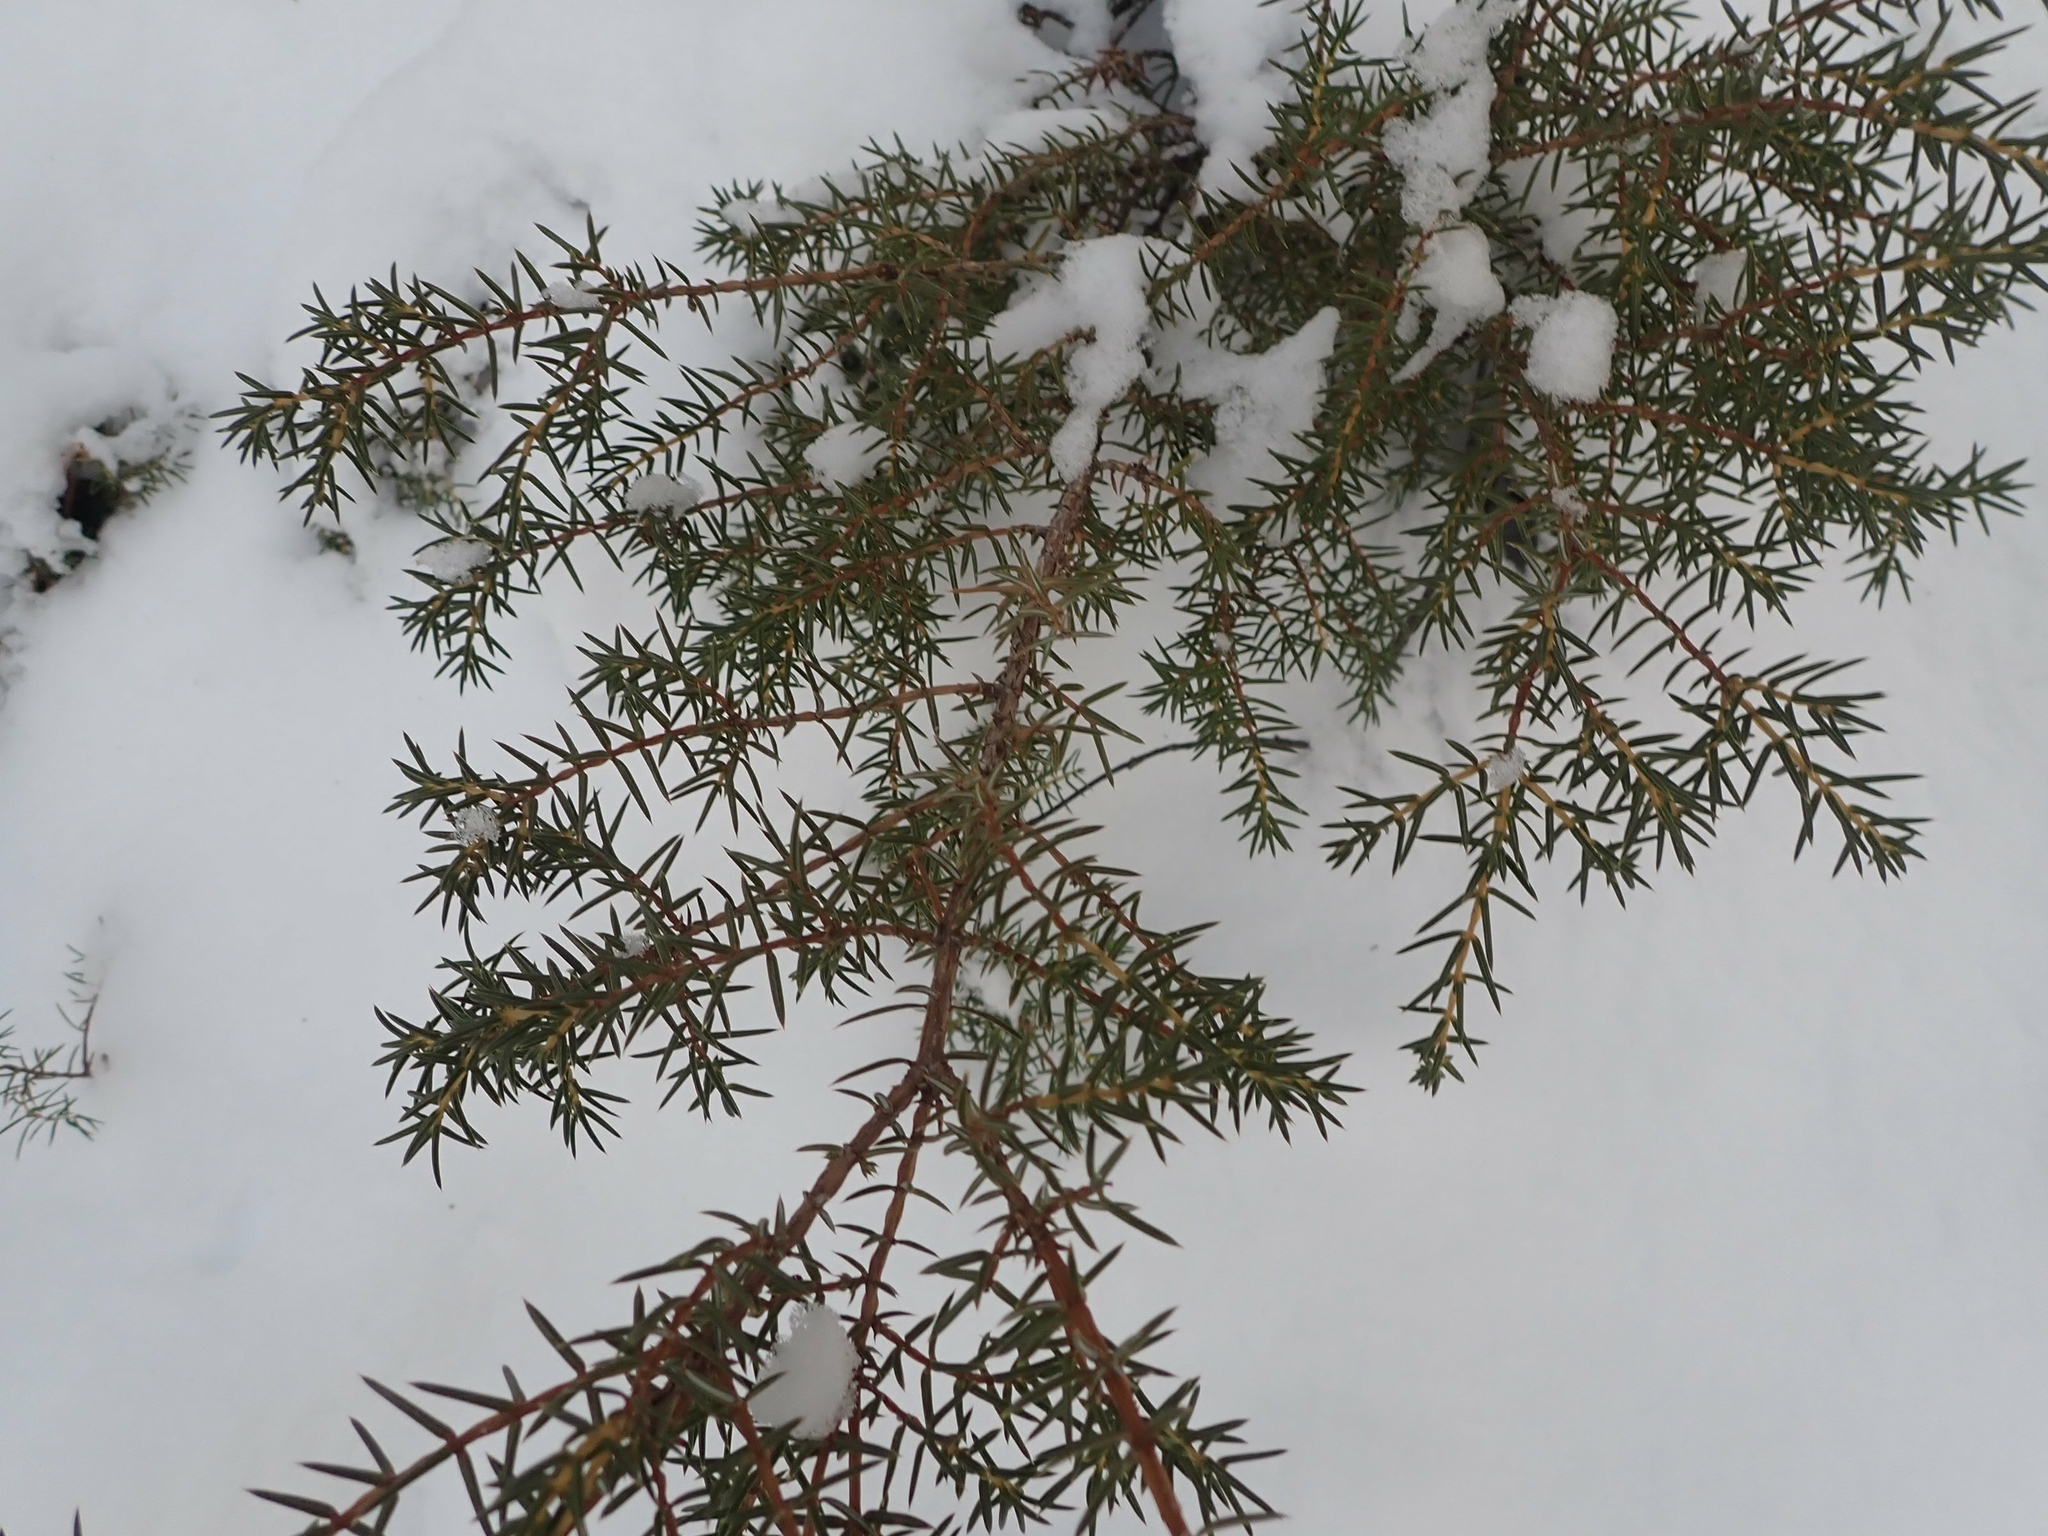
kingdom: Plantae
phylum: Tracheophyta
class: Pinopsida
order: Pinales
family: Cupressaceae
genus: Juniperus
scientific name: Juniperus communis
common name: Common juniper
